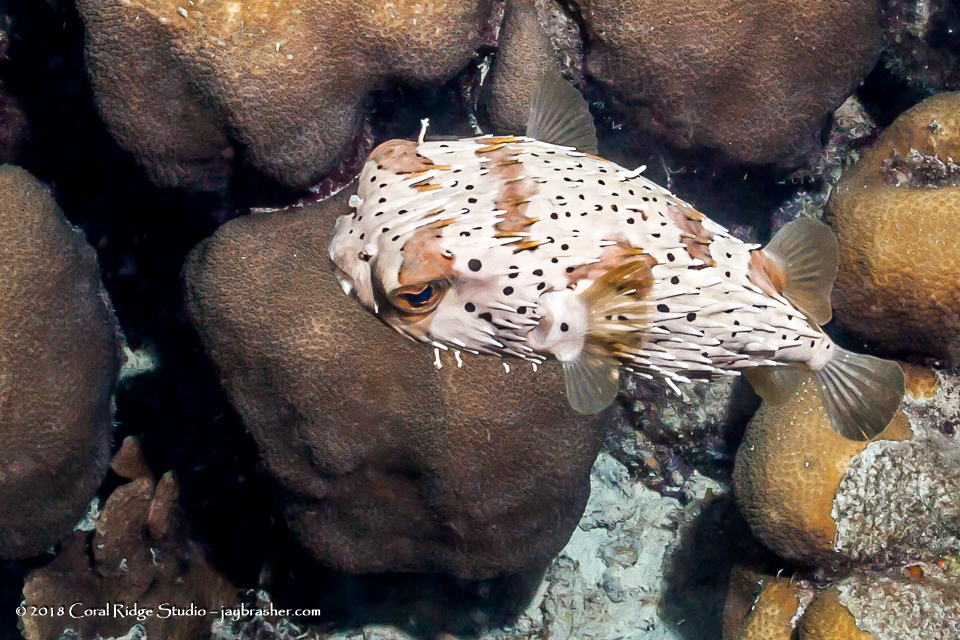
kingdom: Animalia
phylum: Chordata
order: Tetraodontiformes
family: Diodontidae
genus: Diodon
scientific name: Diodon holocanthus
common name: Balloonfish
